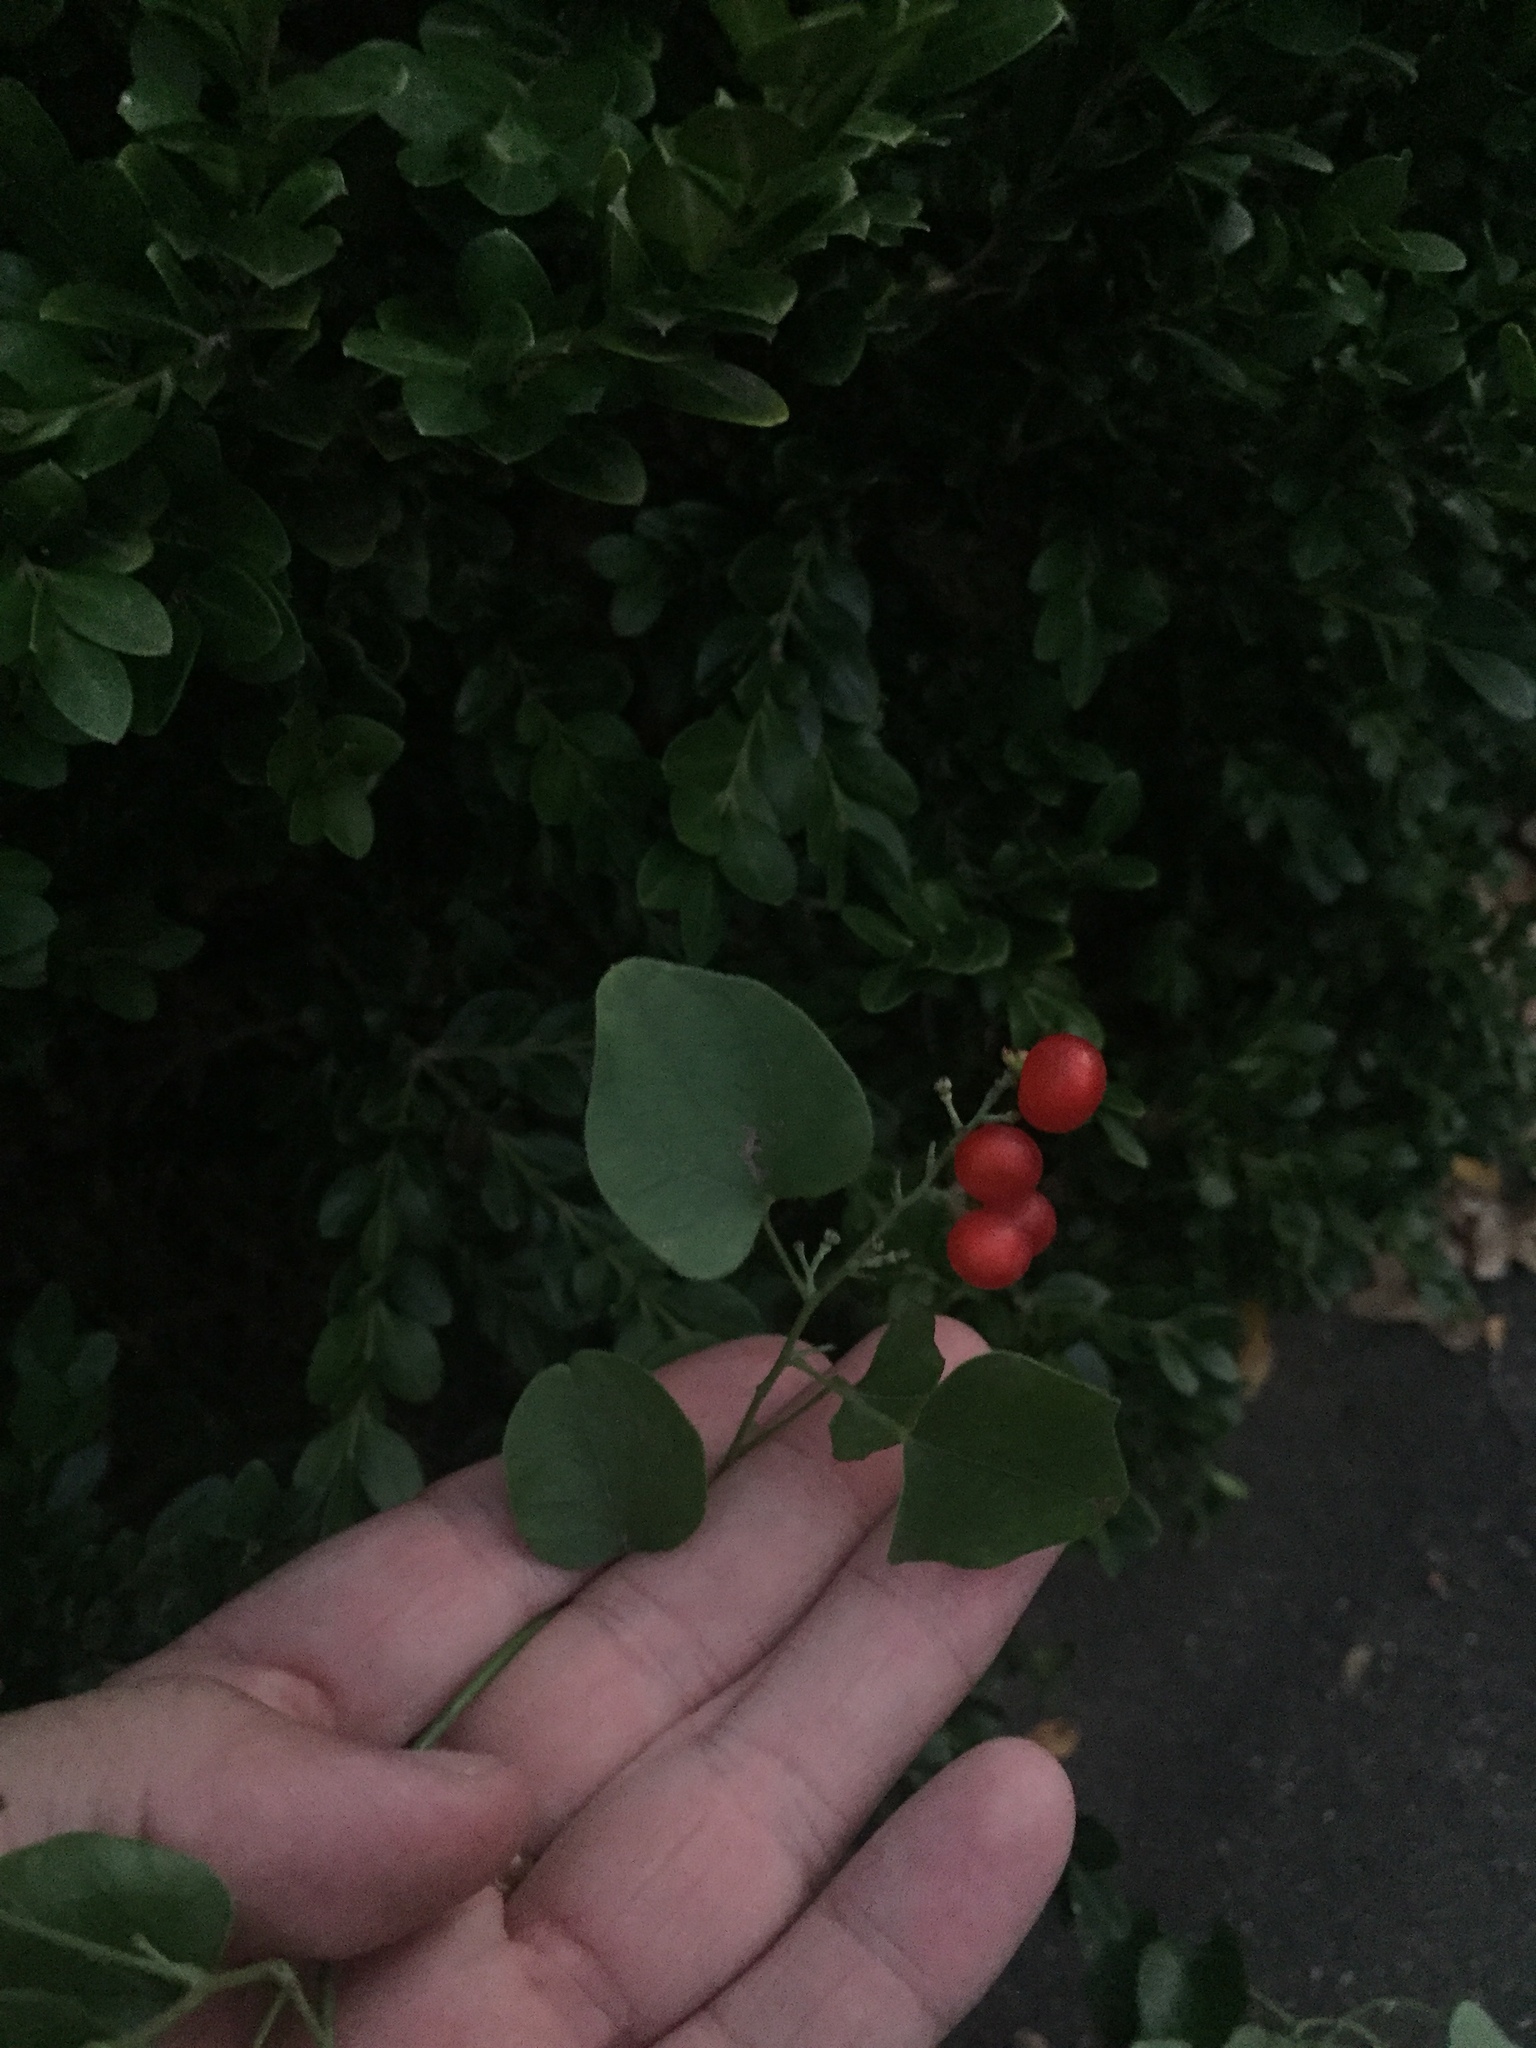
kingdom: Plantae
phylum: Tracheophyta
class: Magnoliopsida
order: Ranunculales
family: Menispermaceae
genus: Cocculus
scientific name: Cocculus carolinus
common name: Carolina moonseed
